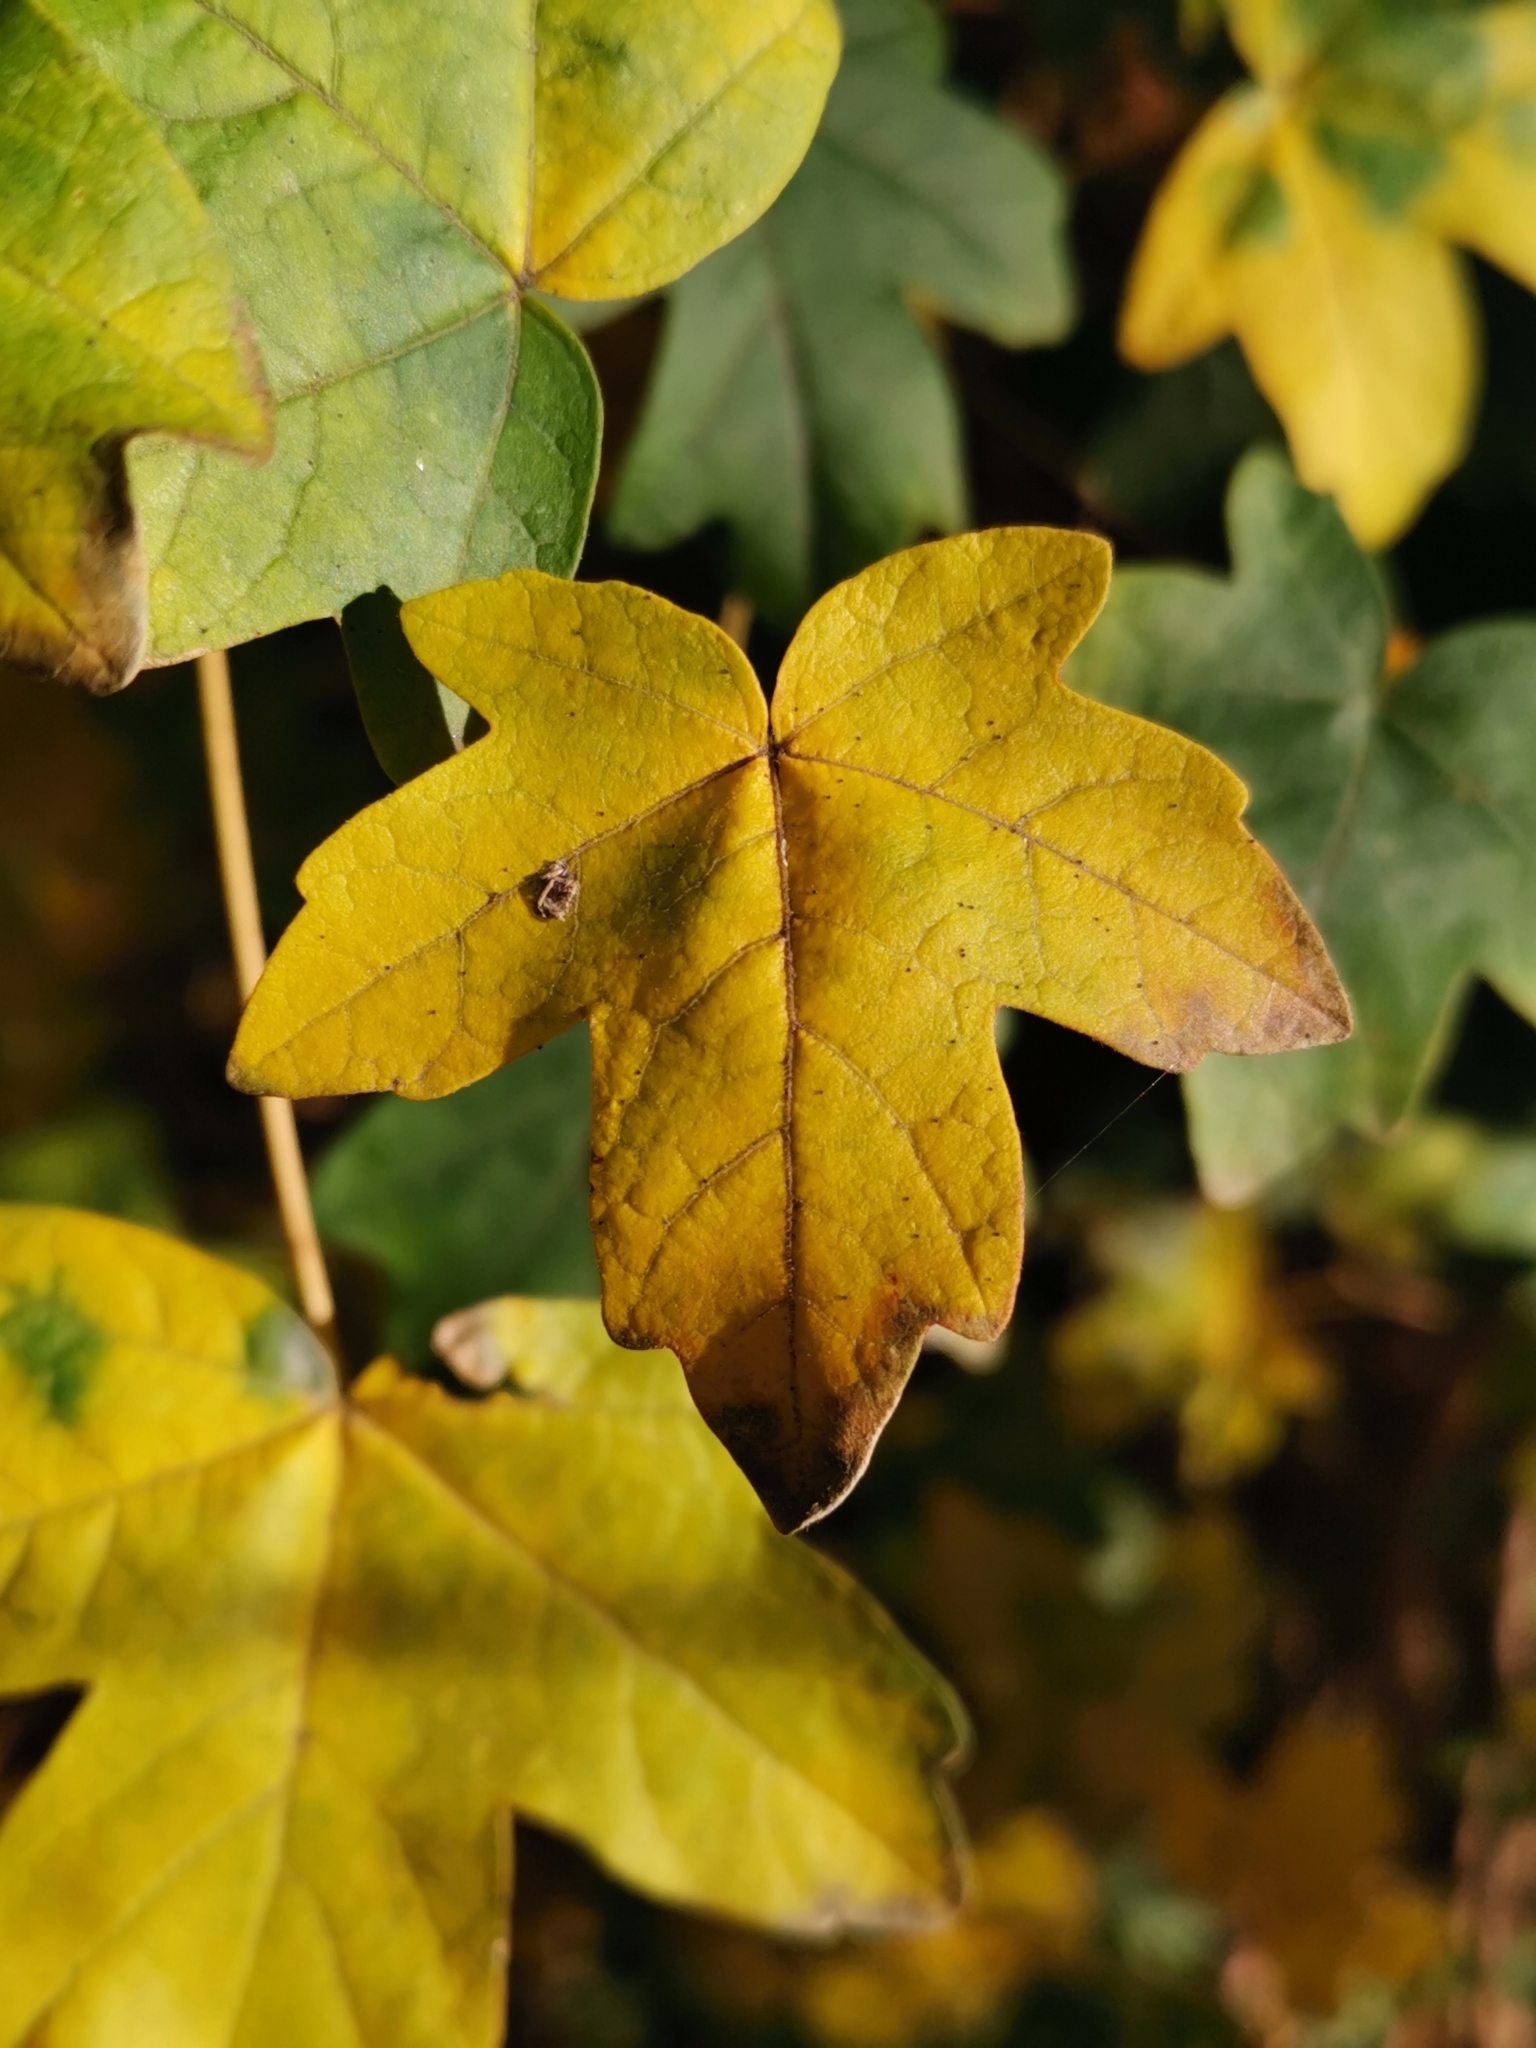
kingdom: Plantae
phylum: Tracheophyta
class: Magnoliopsida
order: Sapindales
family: Sapindaceae
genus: Acer
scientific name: Acer campestre
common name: Field maple
